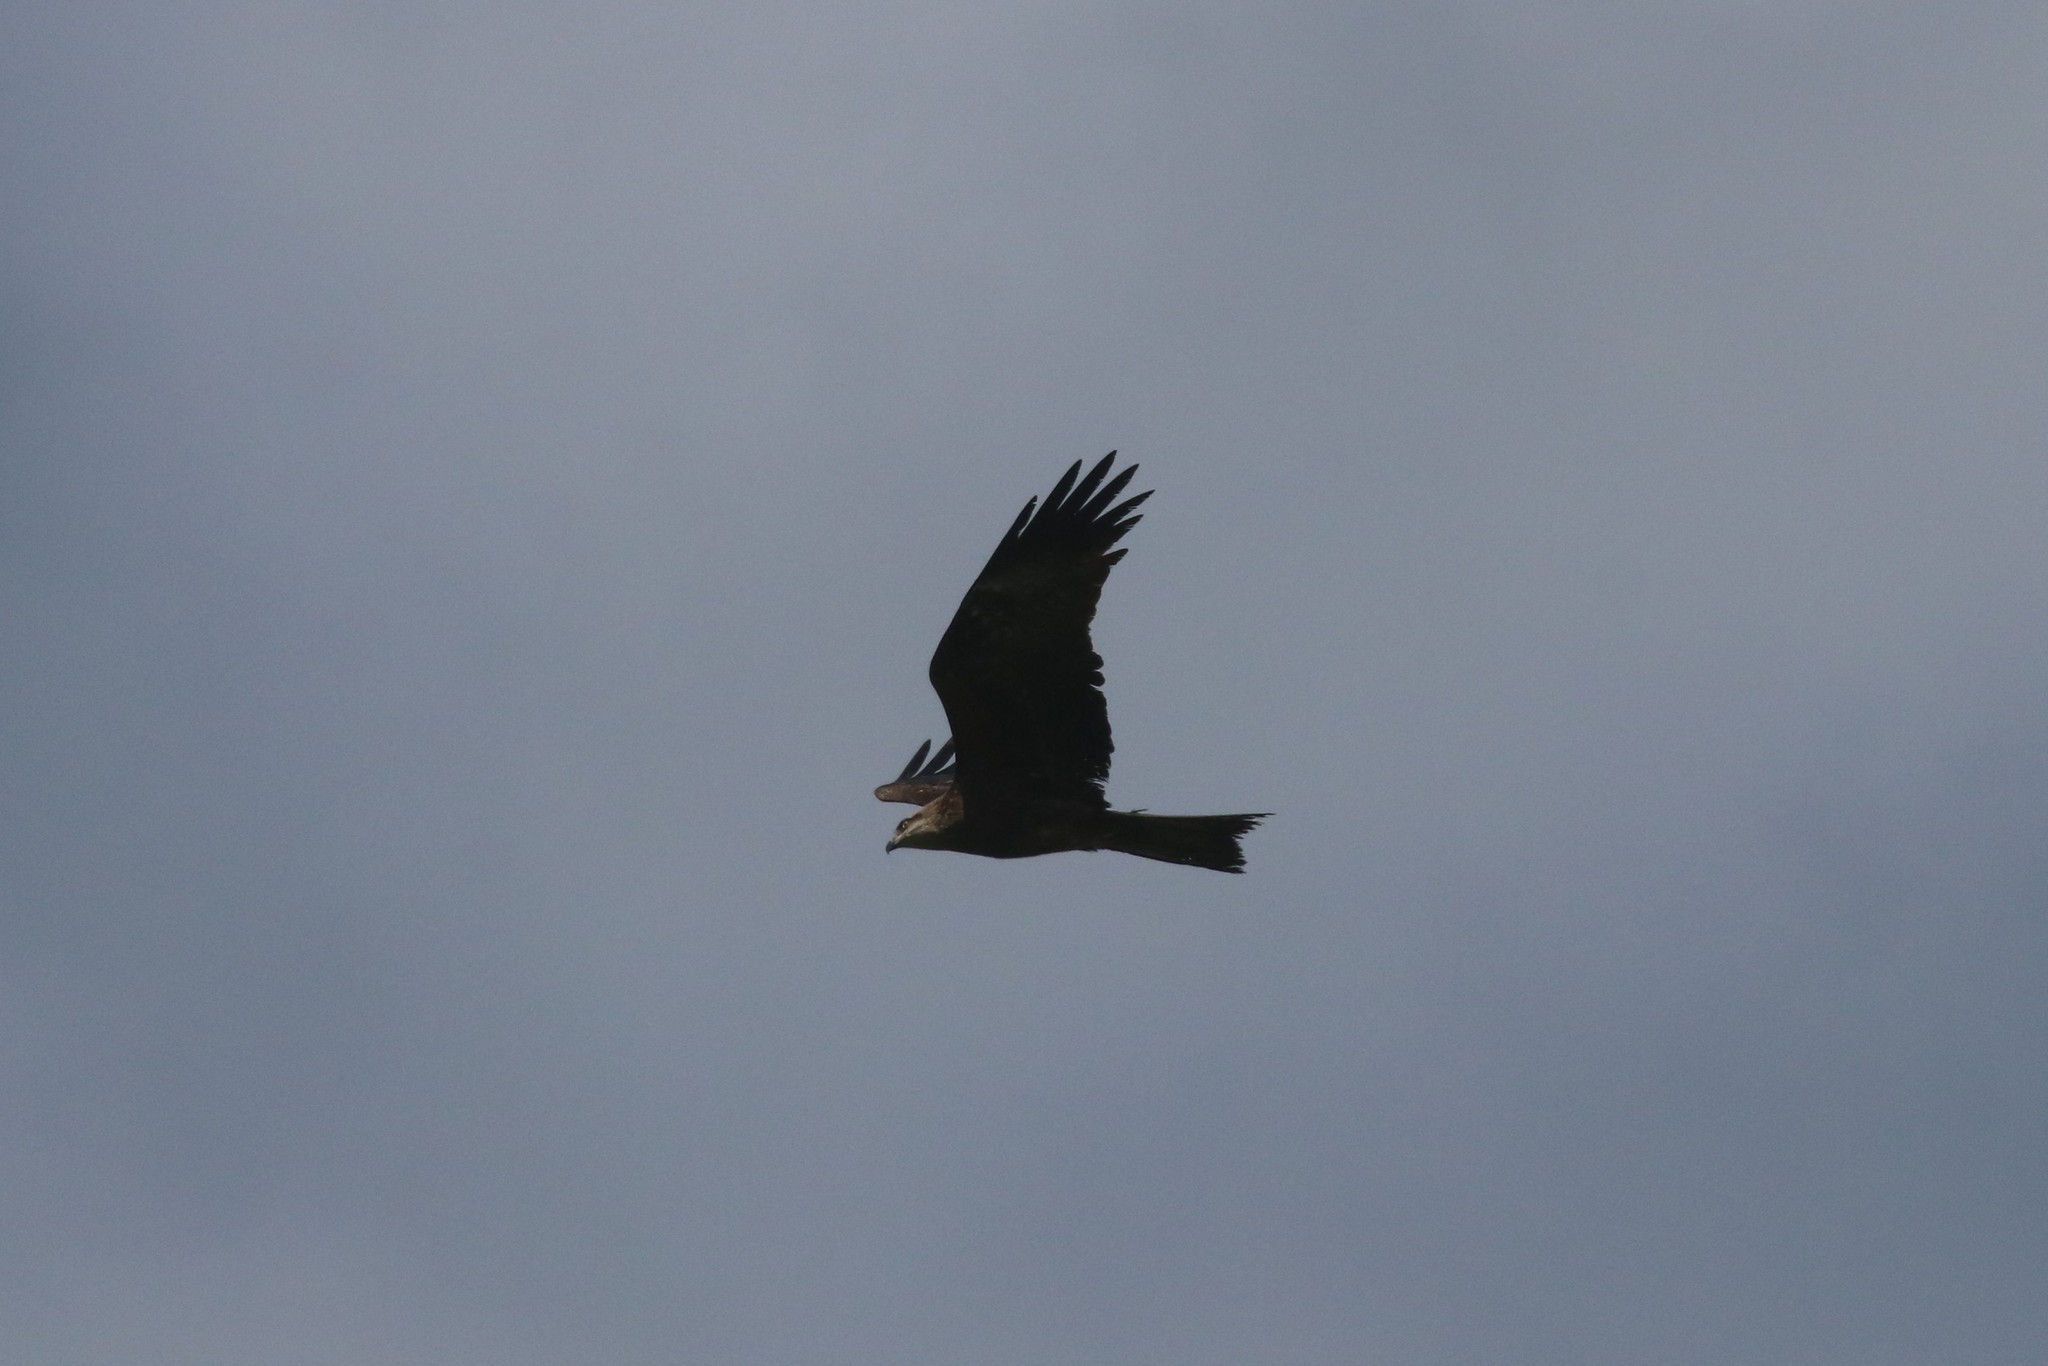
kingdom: Animalia
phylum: Chordata
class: Aves
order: Accipitriformes
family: Accipitridae
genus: Milvus
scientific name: Milvus migrans
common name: Black kite
